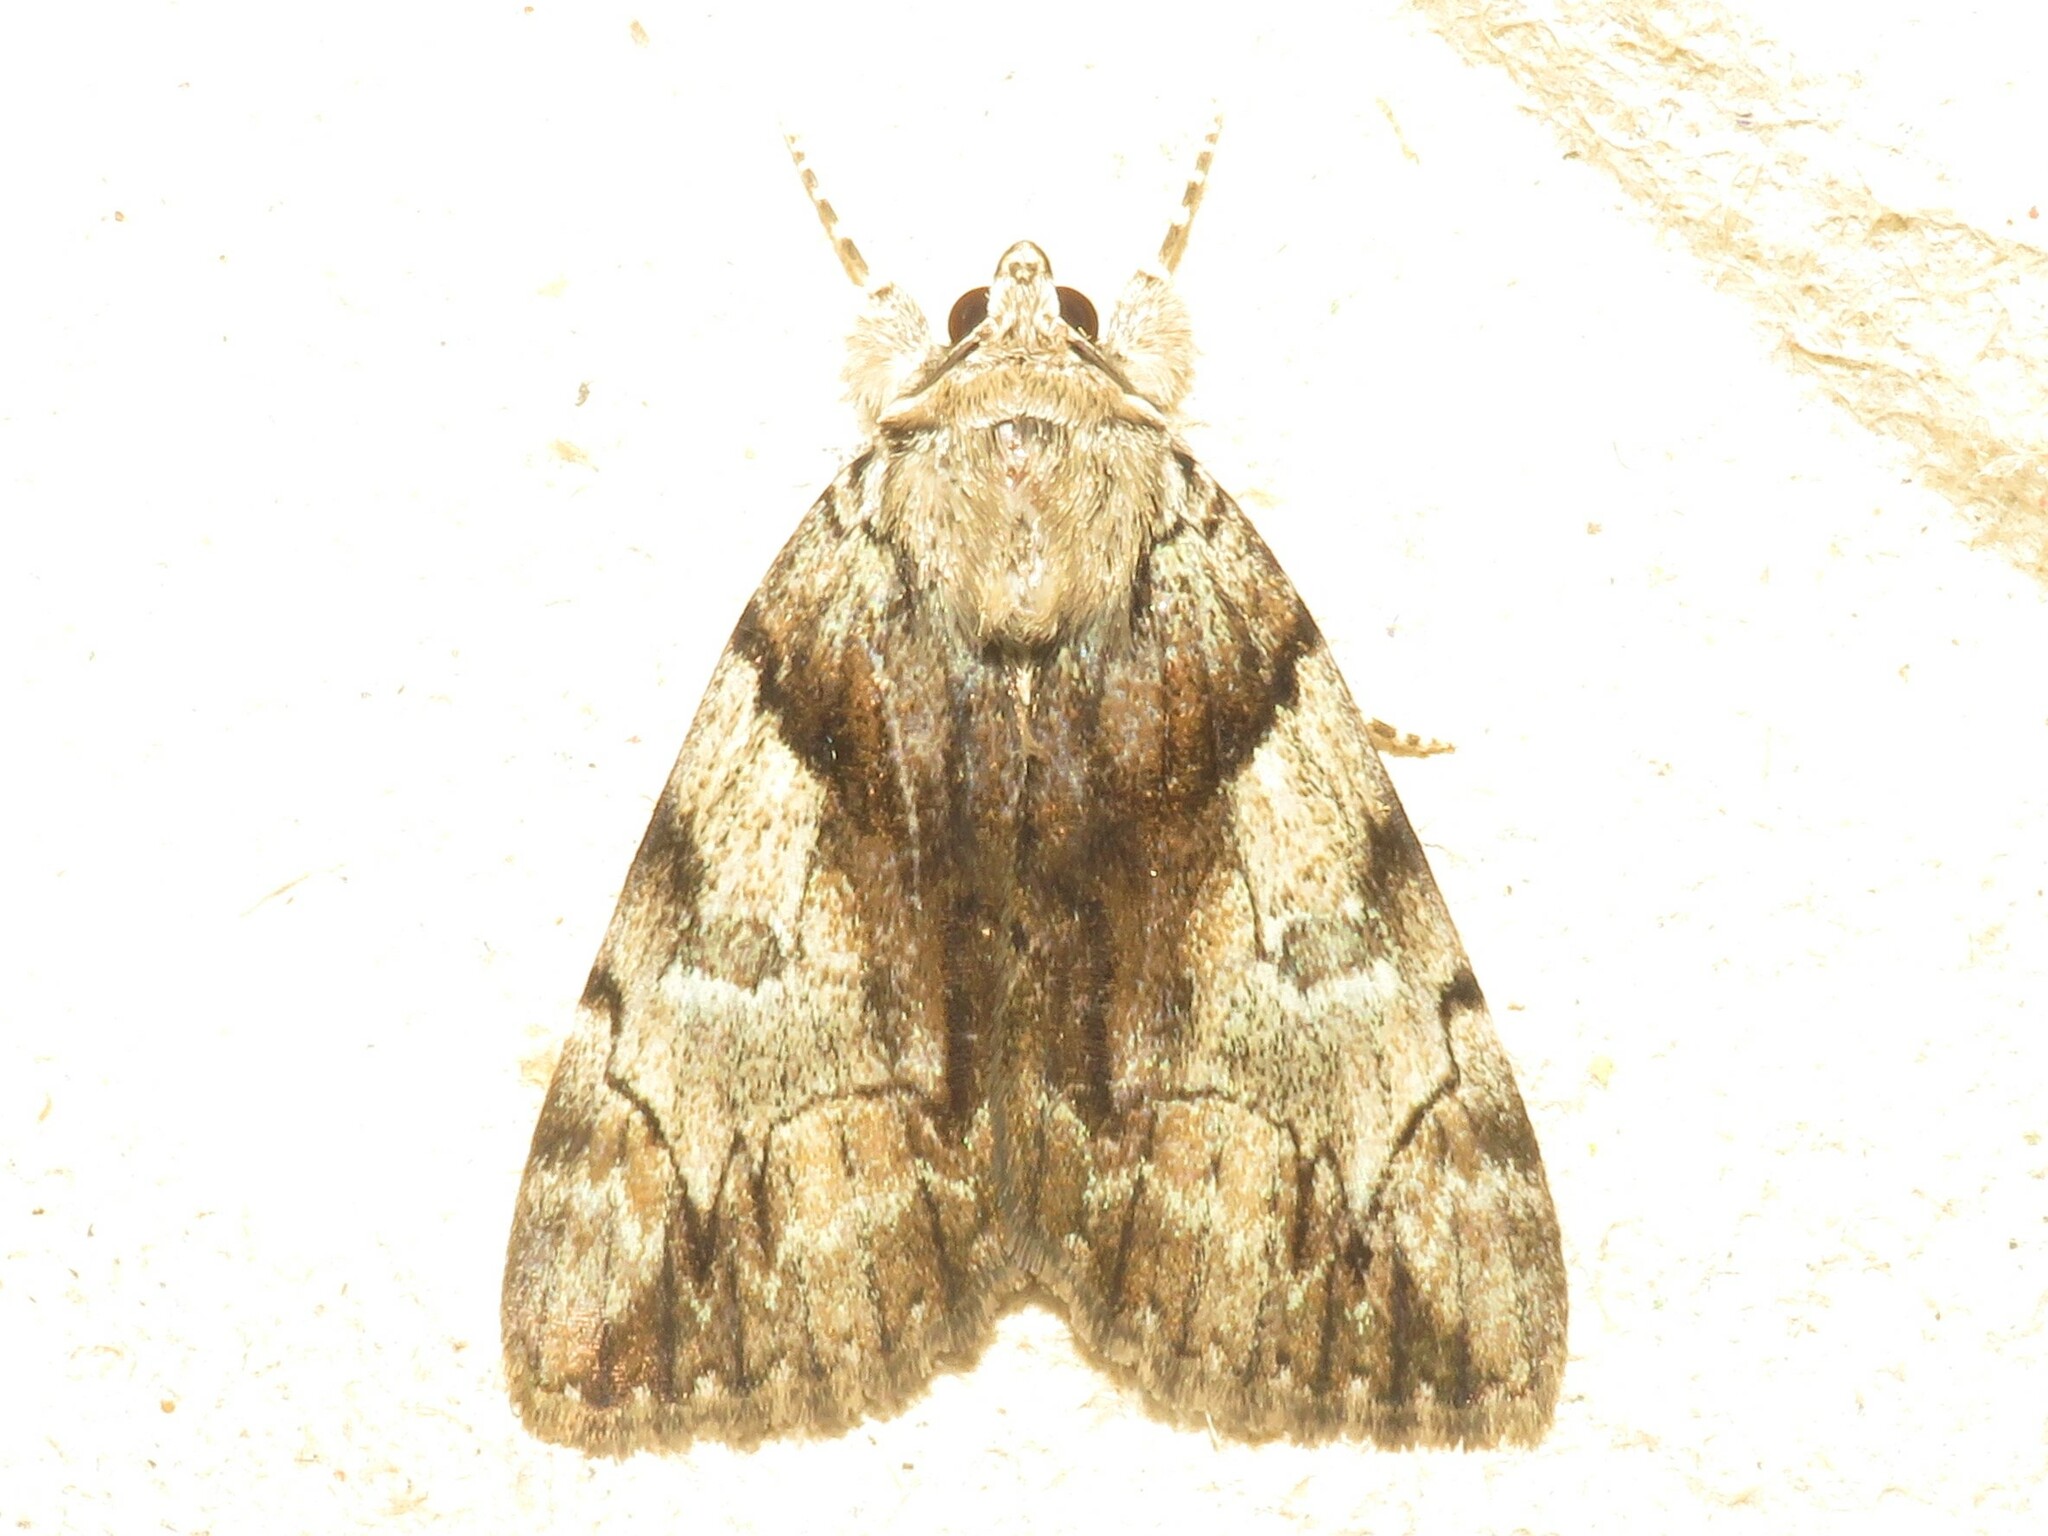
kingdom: Animalia
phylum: Arthropoda
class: Insecta
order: Lepidoptera
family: Erebidae
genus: Catocala
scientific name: Catocala crataegi
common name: Hawthorn underwing moth
